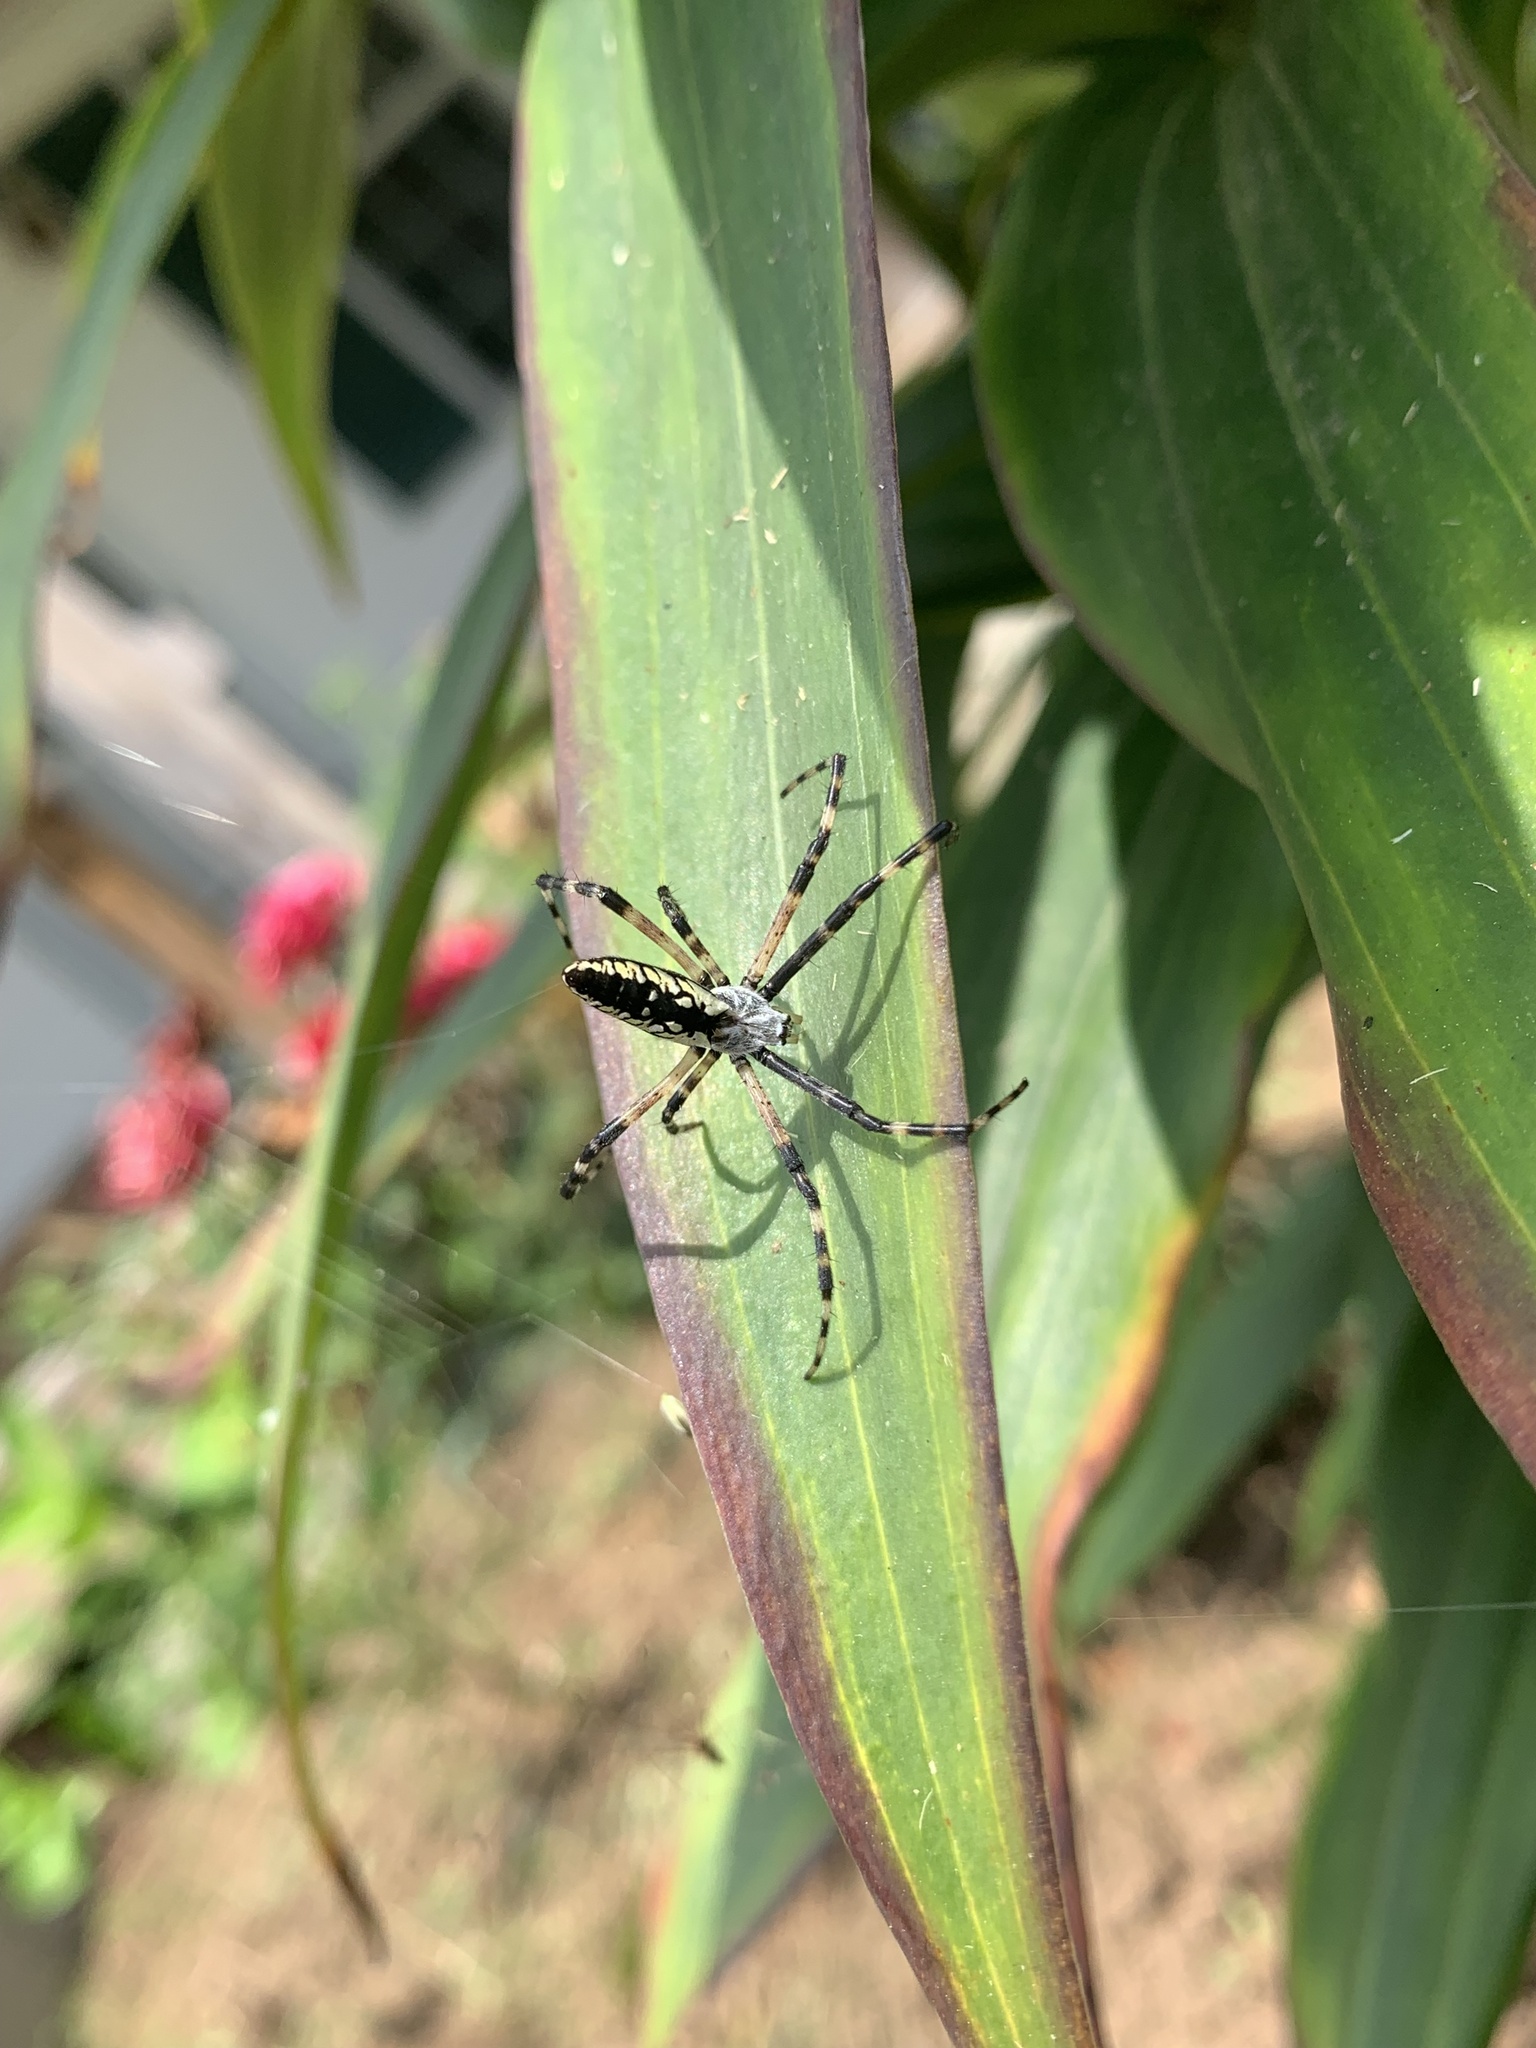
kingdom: Animalia
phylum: Arthropoda
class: Arachnida
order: Araneae
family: Araneidae
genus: Argiope
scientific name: Argiope aurantia
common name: Orb weavers
